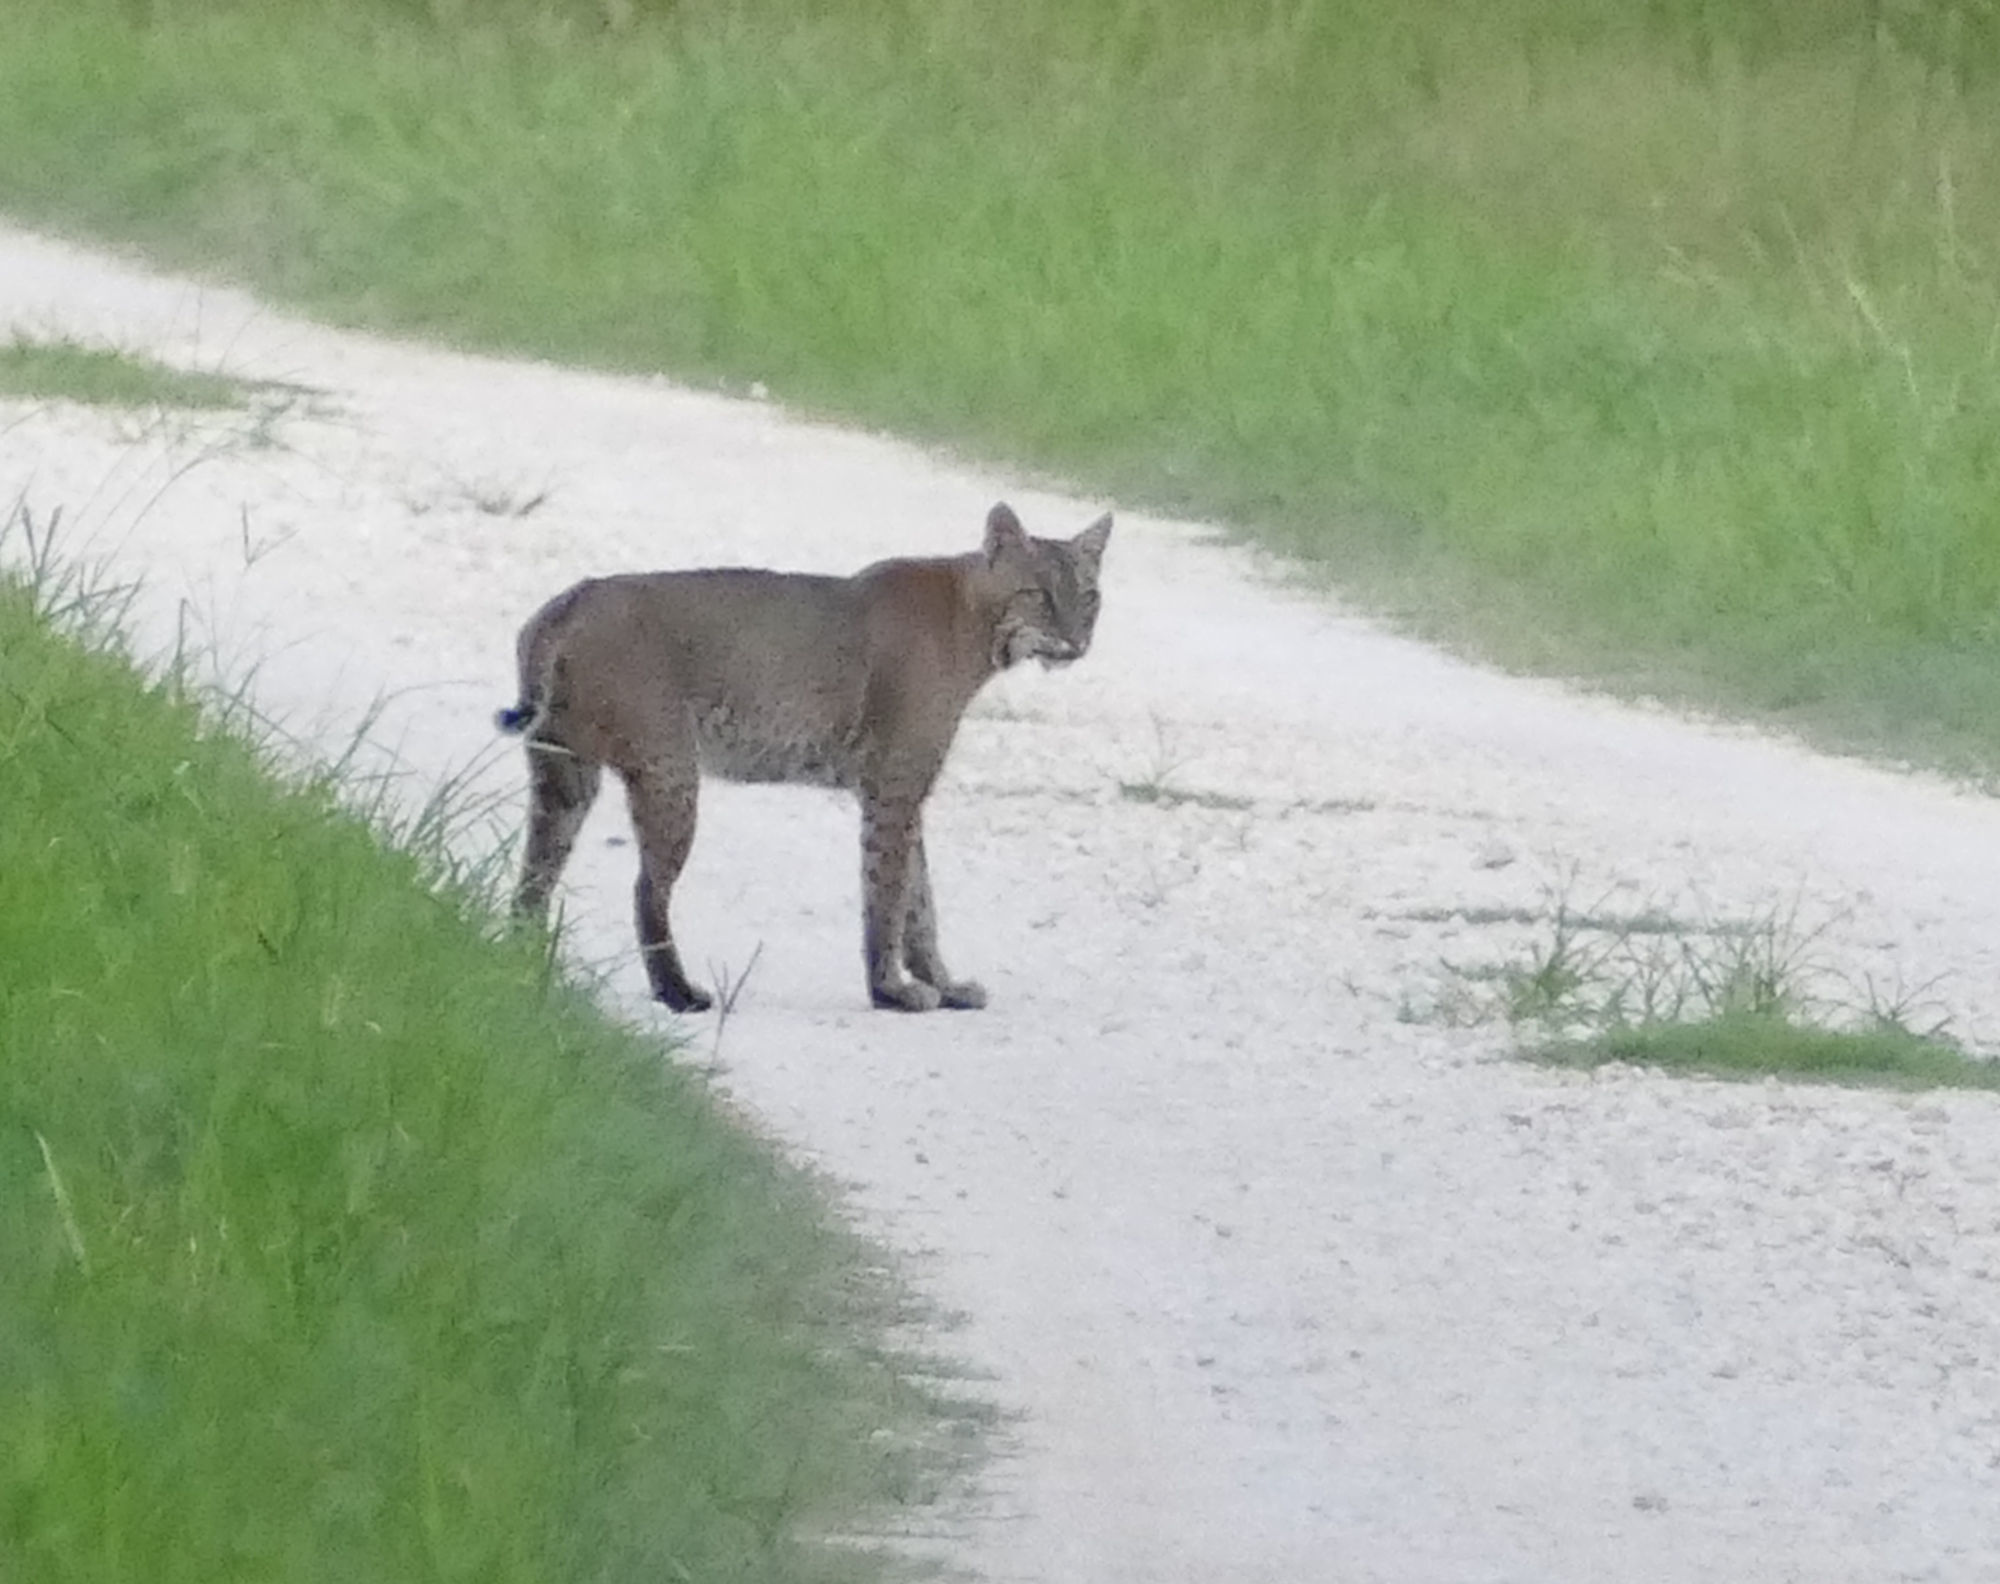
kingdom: Animalia
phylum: Chordata
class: Mammalia
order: Carnivora
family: Felidae
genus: Lynx
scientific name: Lynx rufus
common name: Bobcat
